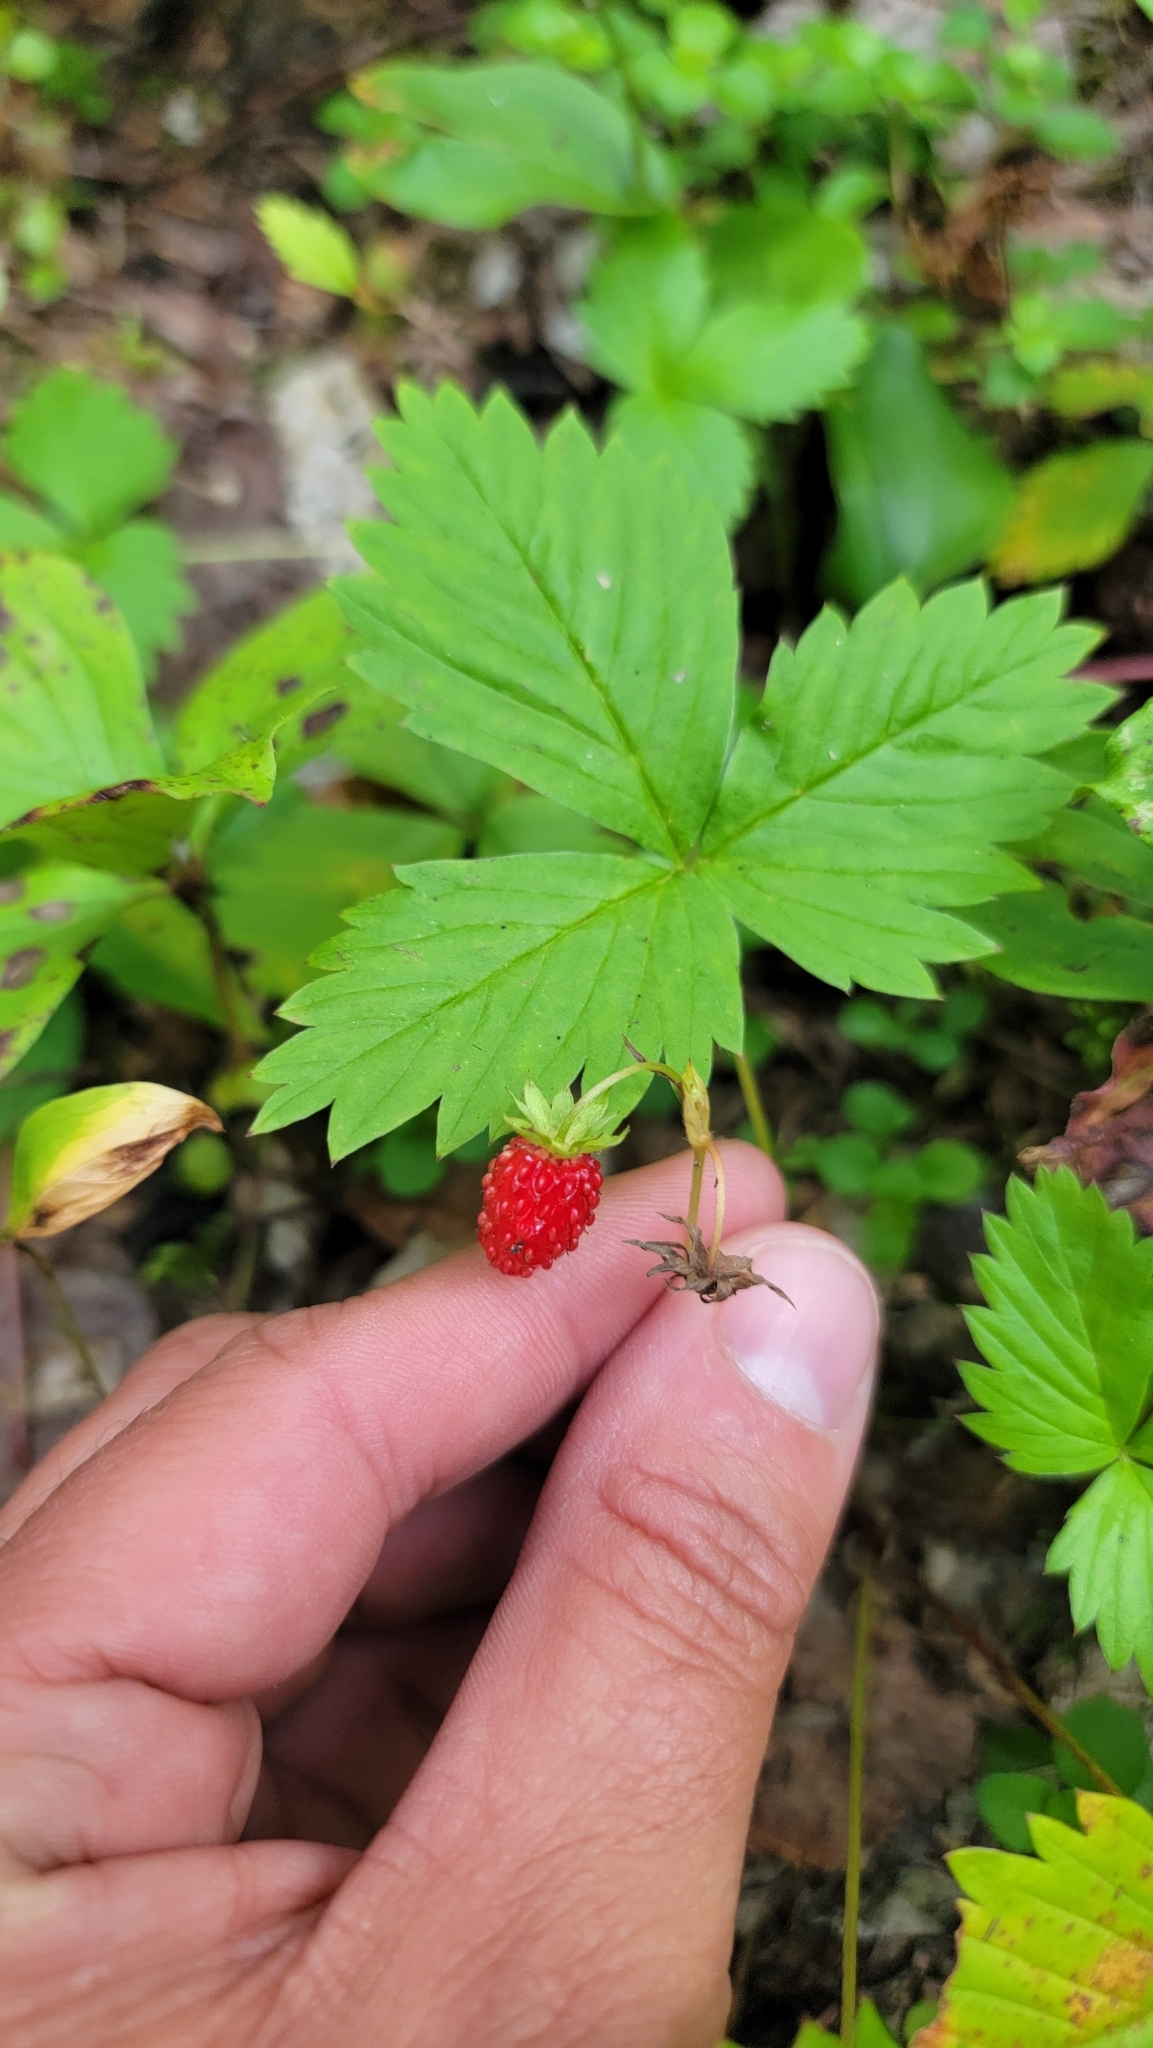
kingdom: Plantae
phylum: Tracheophyta
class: Magnoliopsida
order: Rosales
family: Rosaceae
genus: Fragaria
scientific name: Fragaria vesca
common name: Wild strawberry
